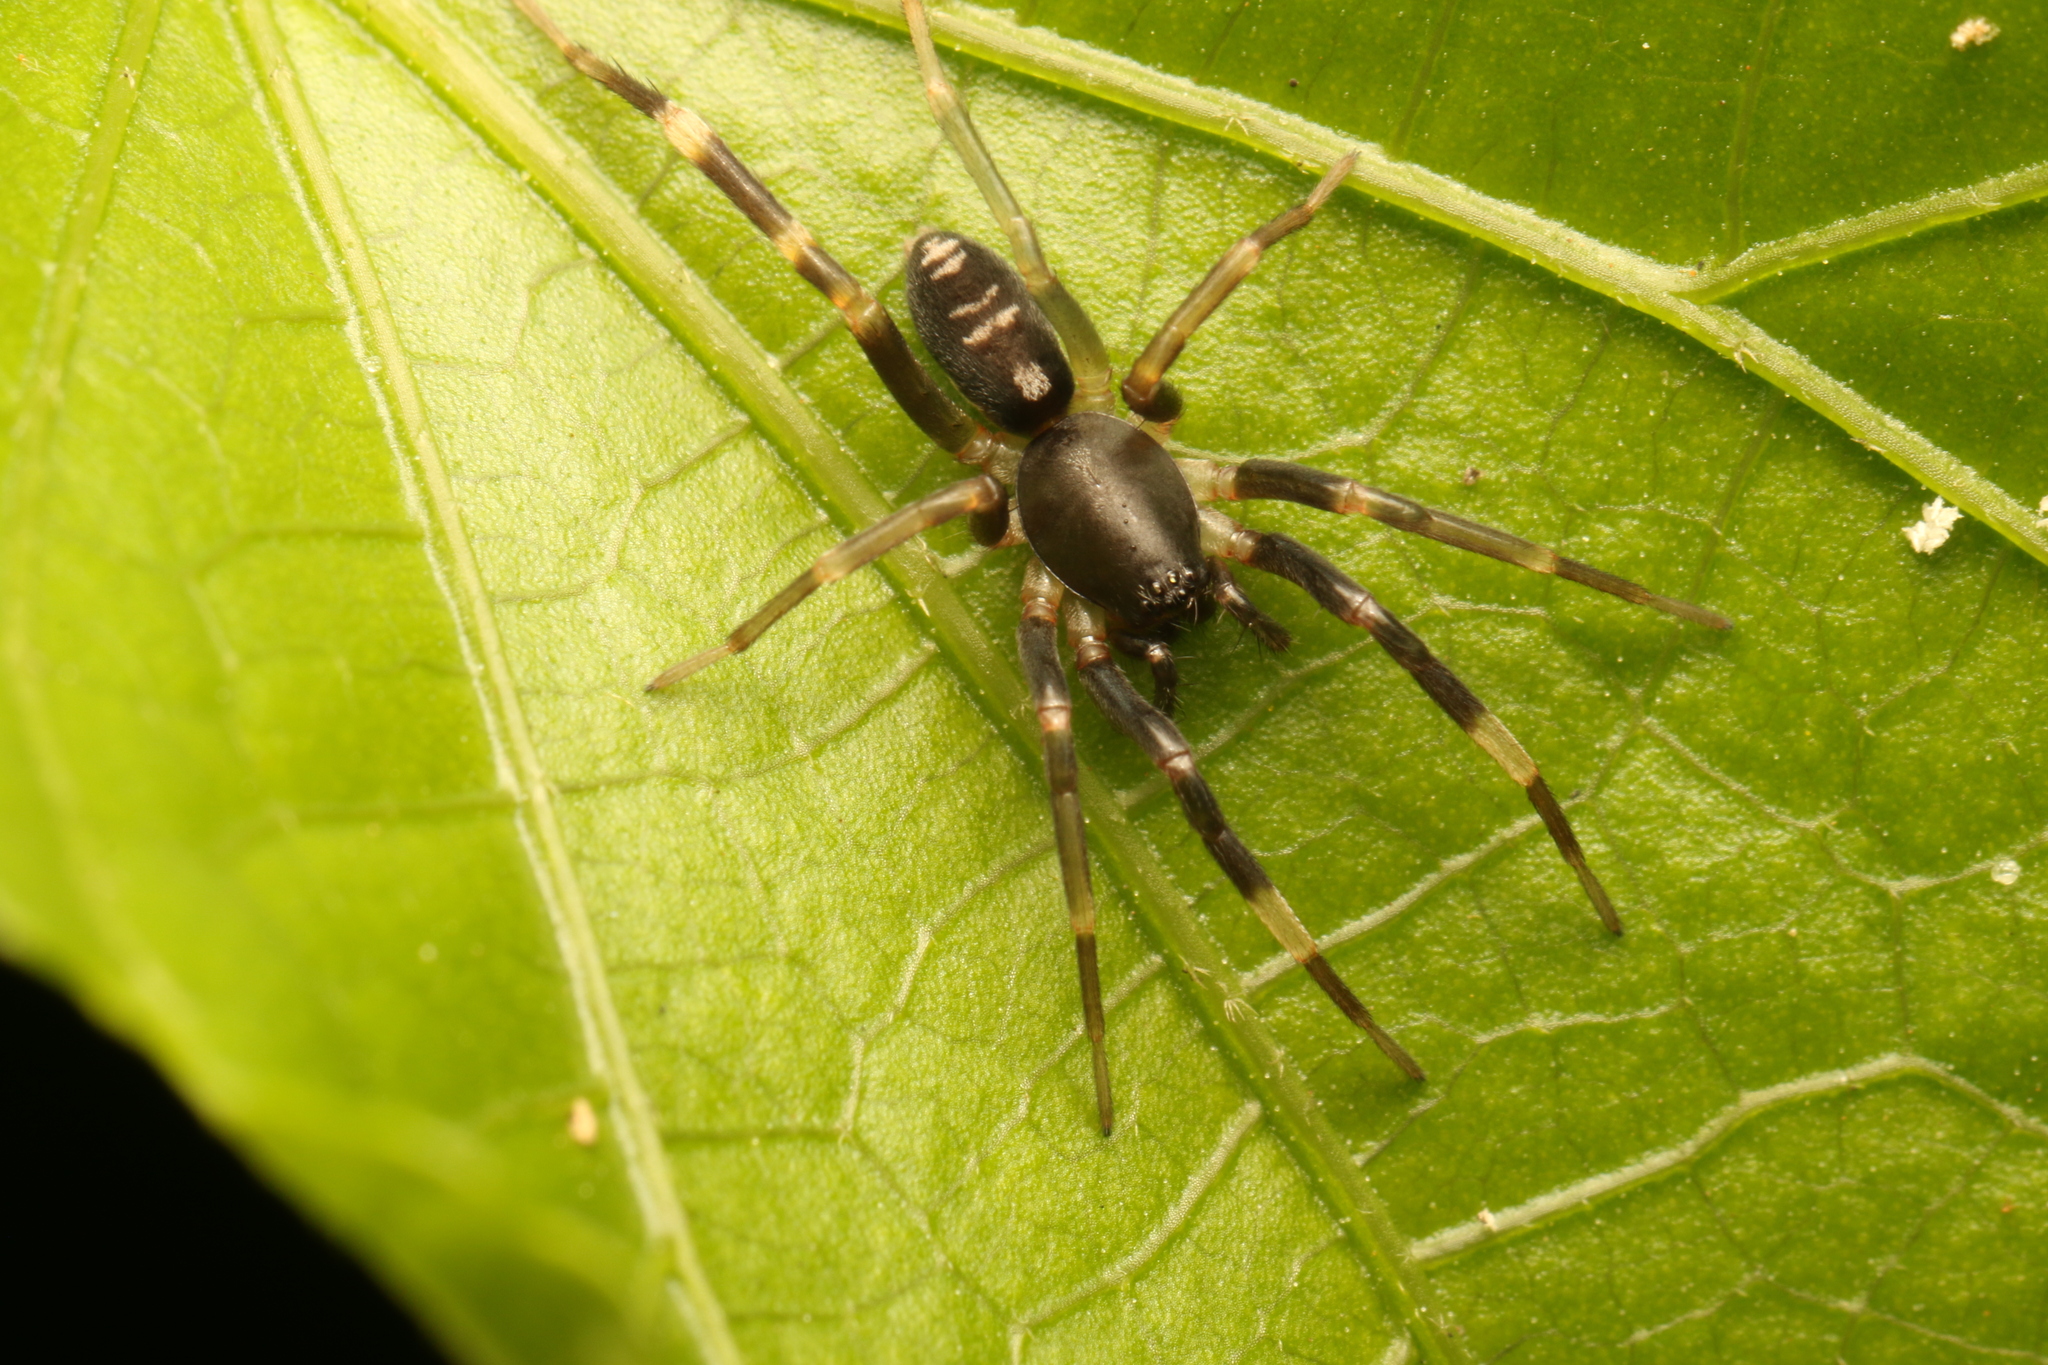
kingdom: Animalia
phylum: Arthropoda
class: Arachnida
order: Araneae
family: Corinnidae
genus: Ianduba
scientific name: Ianduba varia
